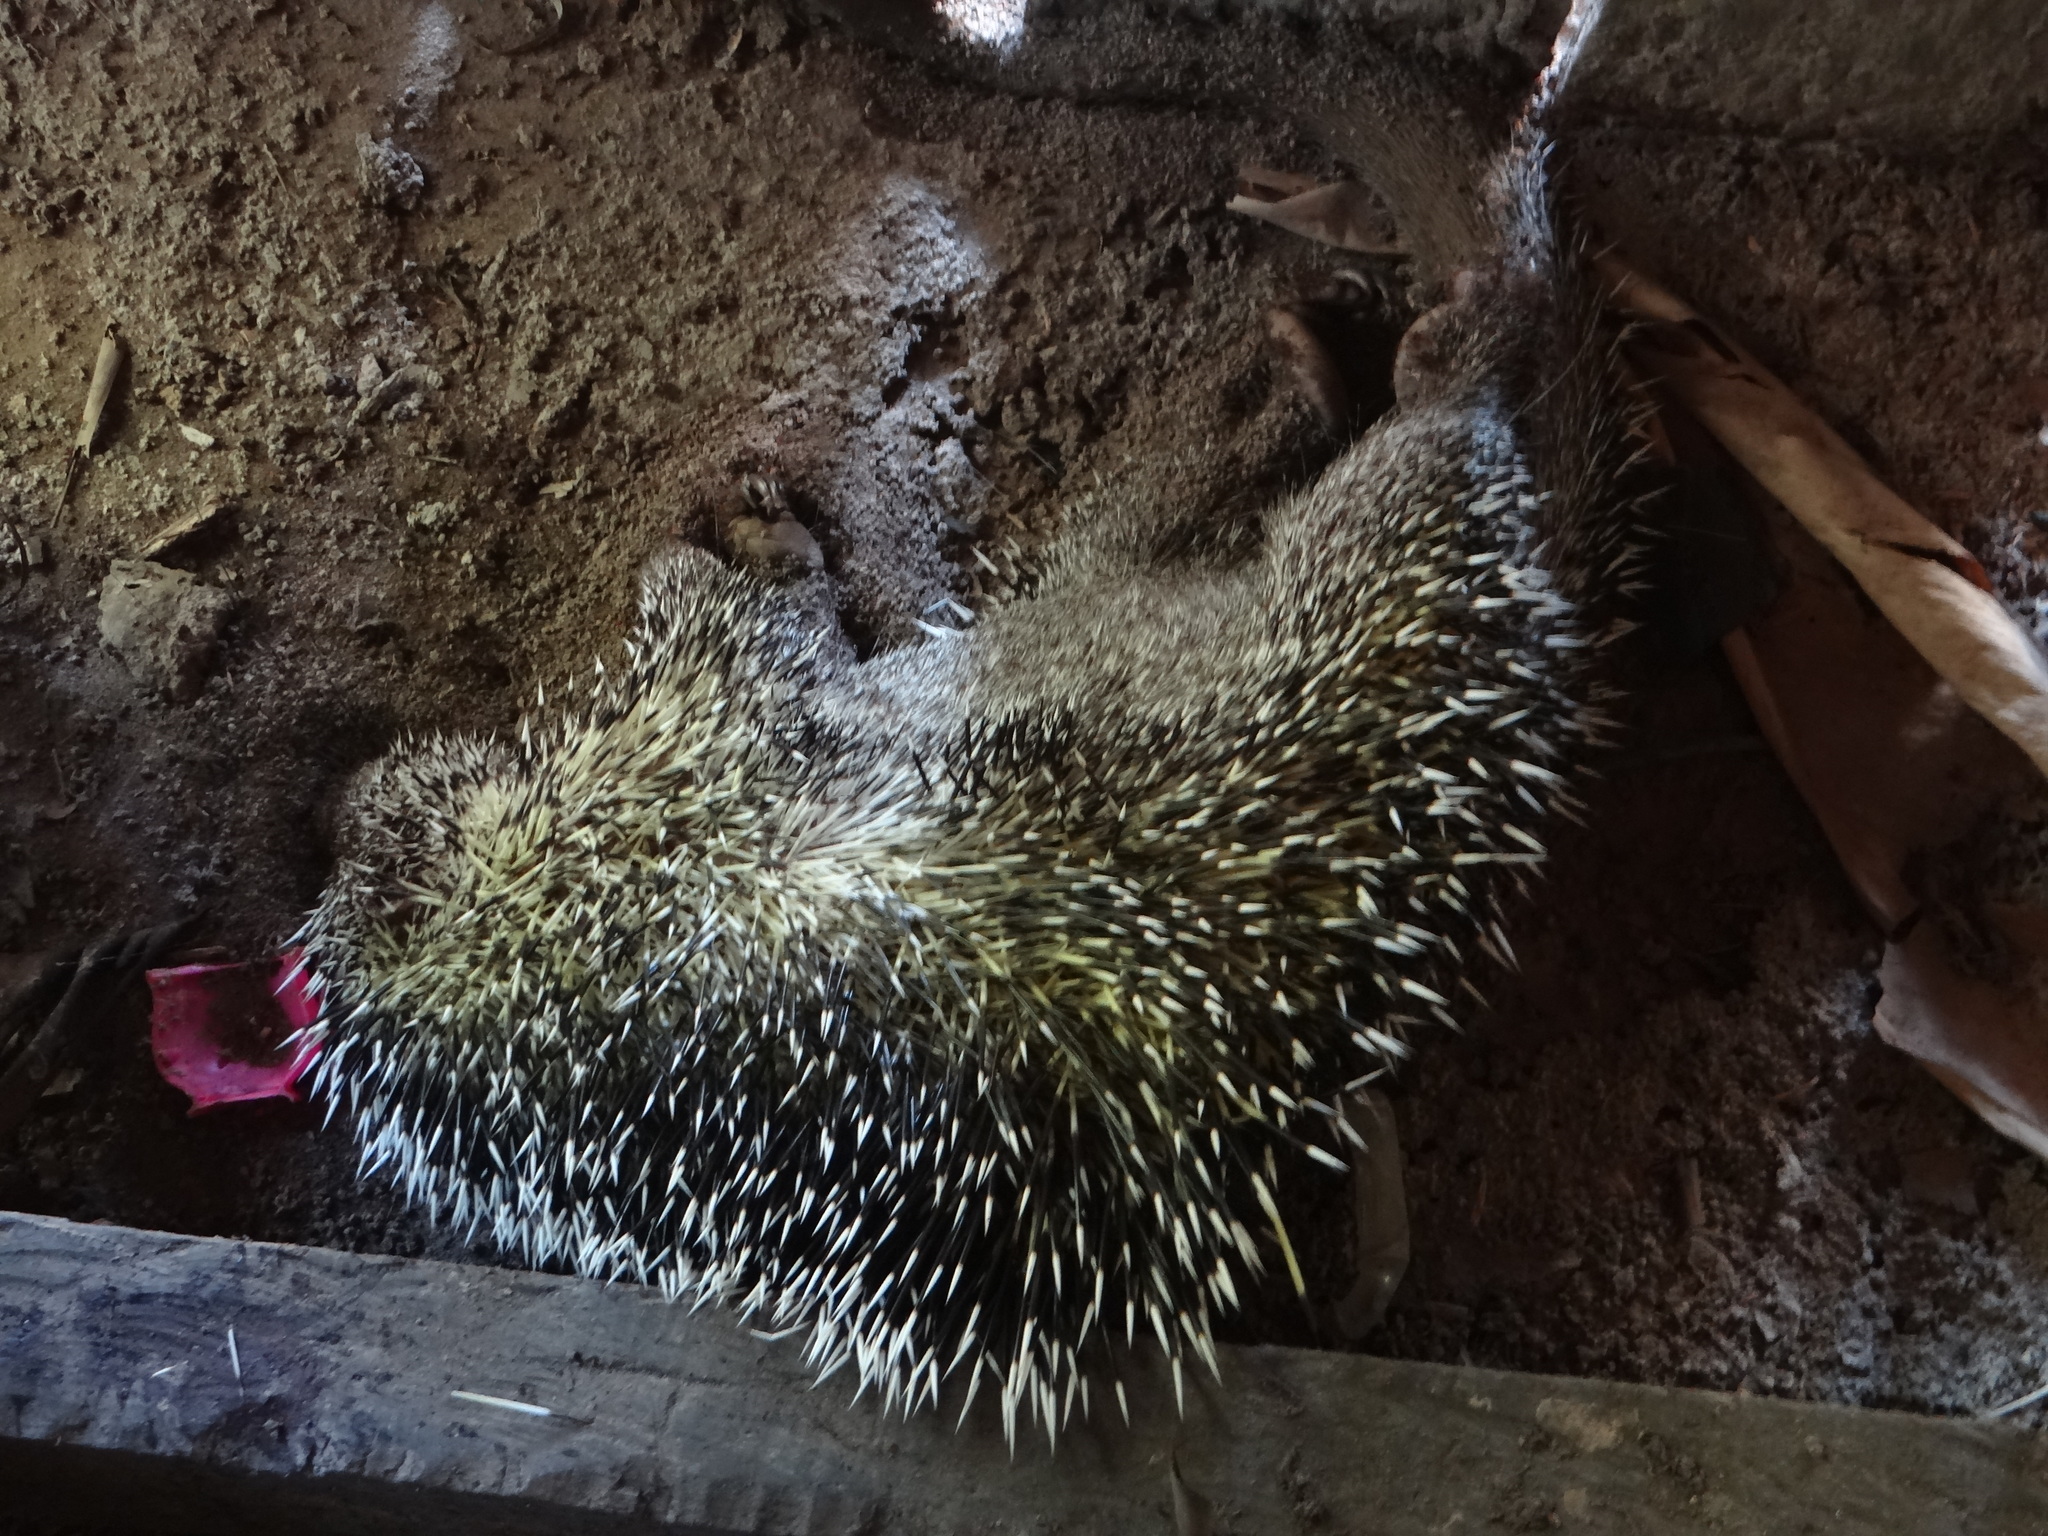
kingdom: Animalia
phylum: Chordata
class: Mammalia
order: Rodentia
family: Erethizontidae
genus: Coendou
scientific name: Coendou longicaudatus
